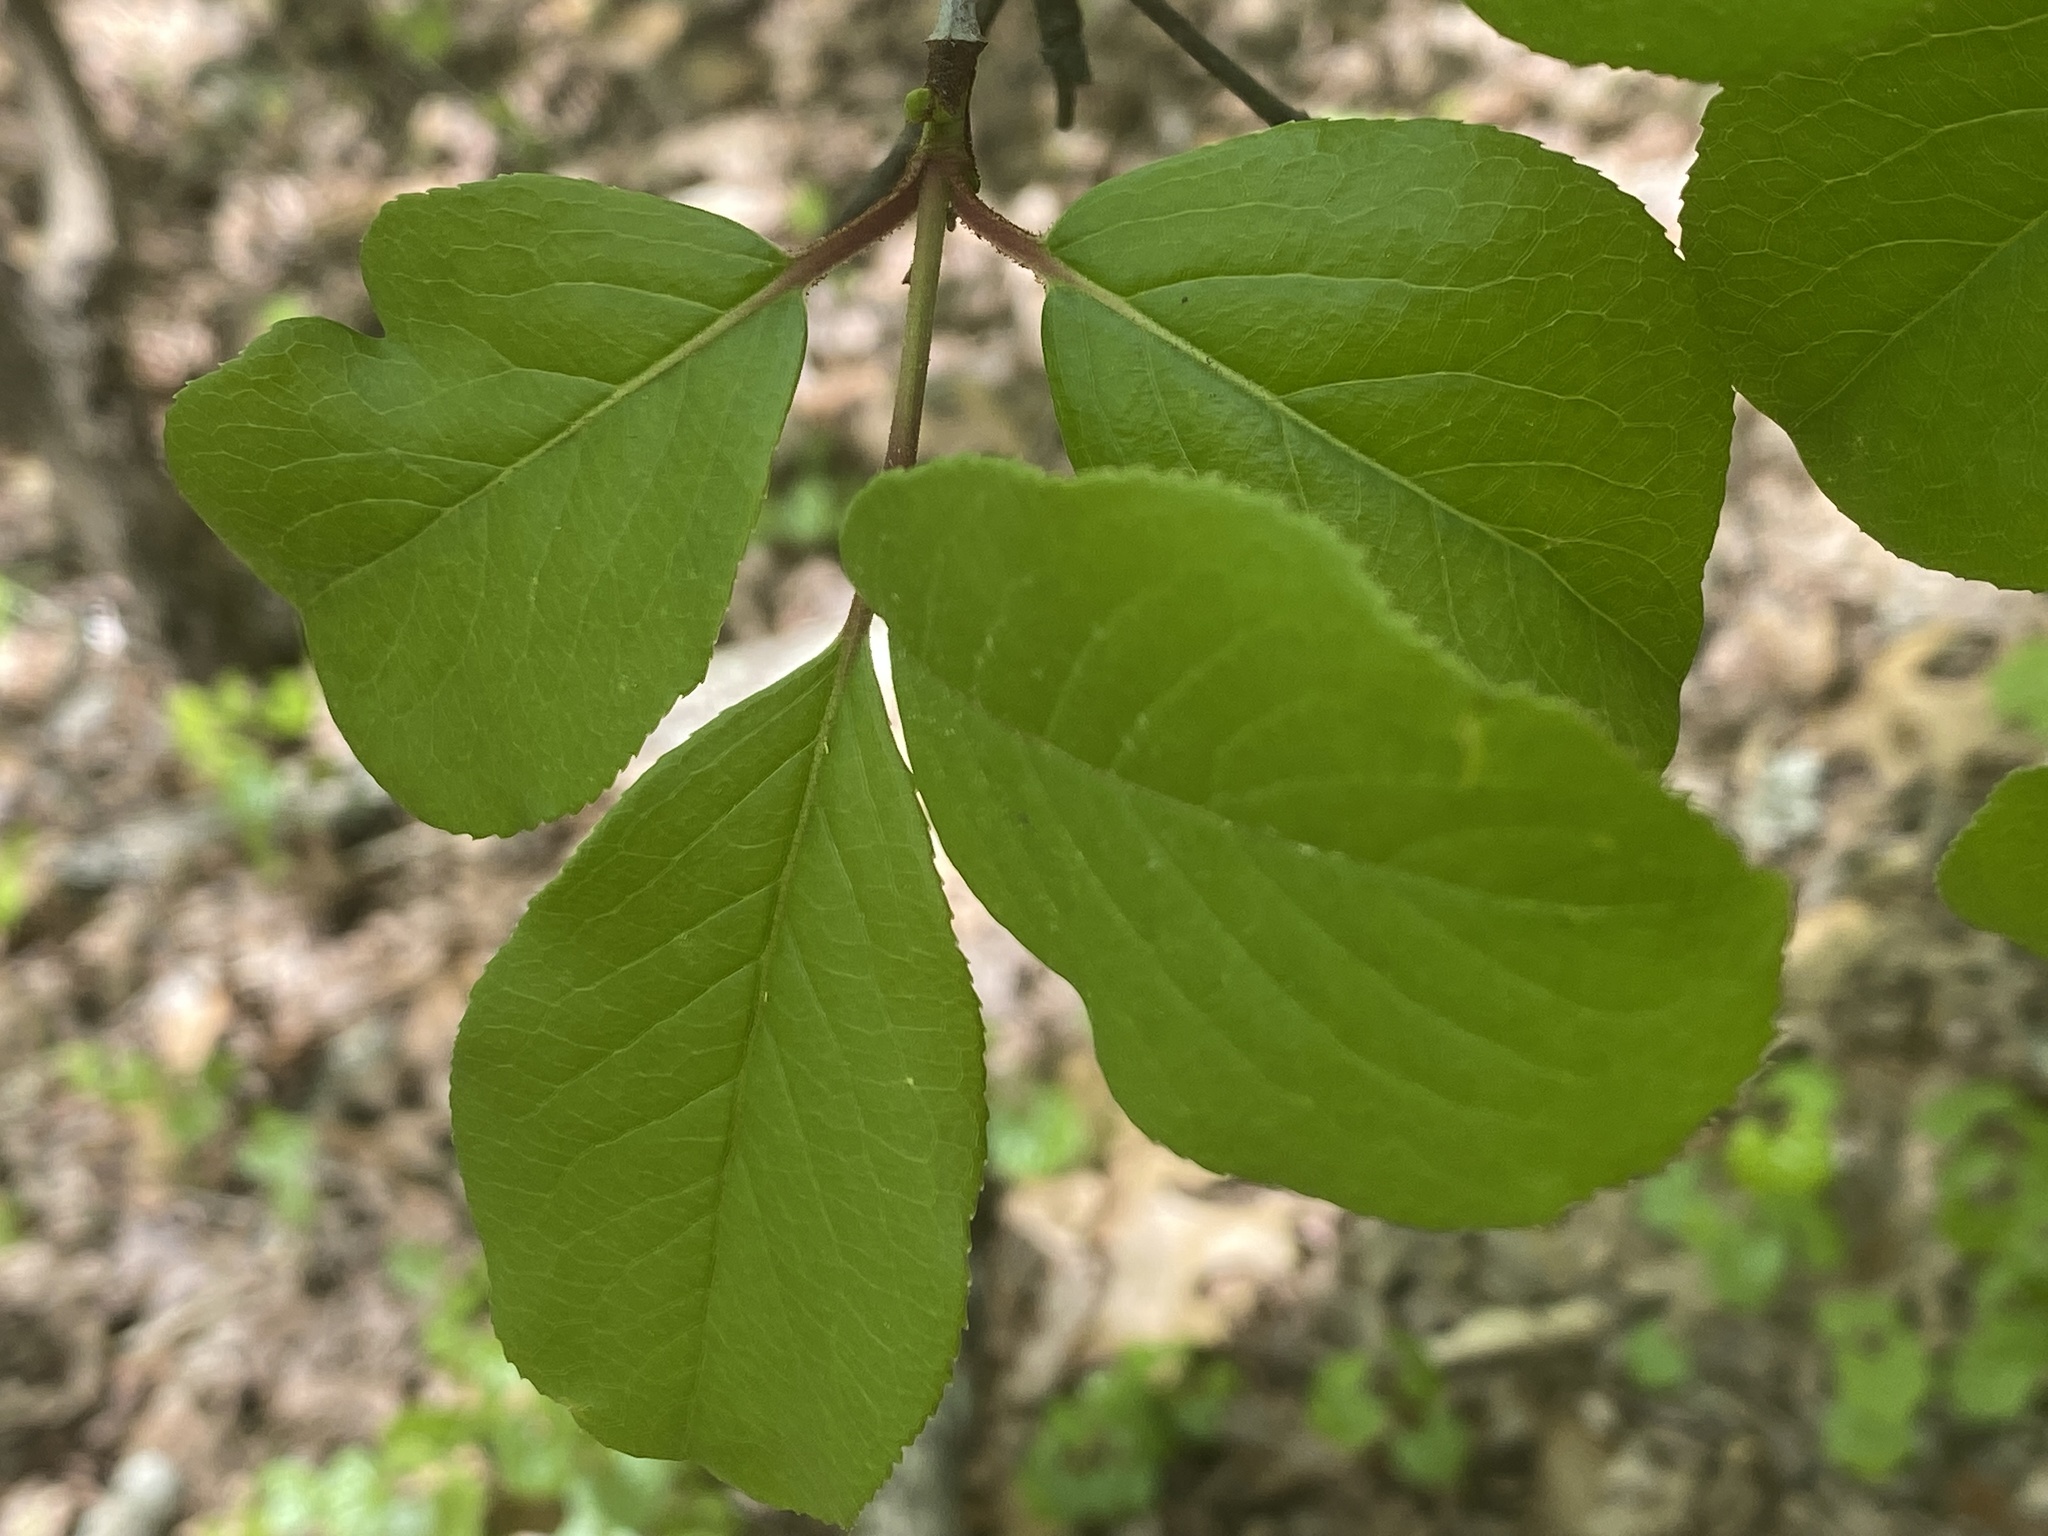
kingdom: Plantae
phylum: Tracheophyta
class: Magnoliopsida
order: Dipsacales
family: Viburnaceae
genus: Viburnum
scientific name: Viburnum rufidulum
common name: Blue haw
